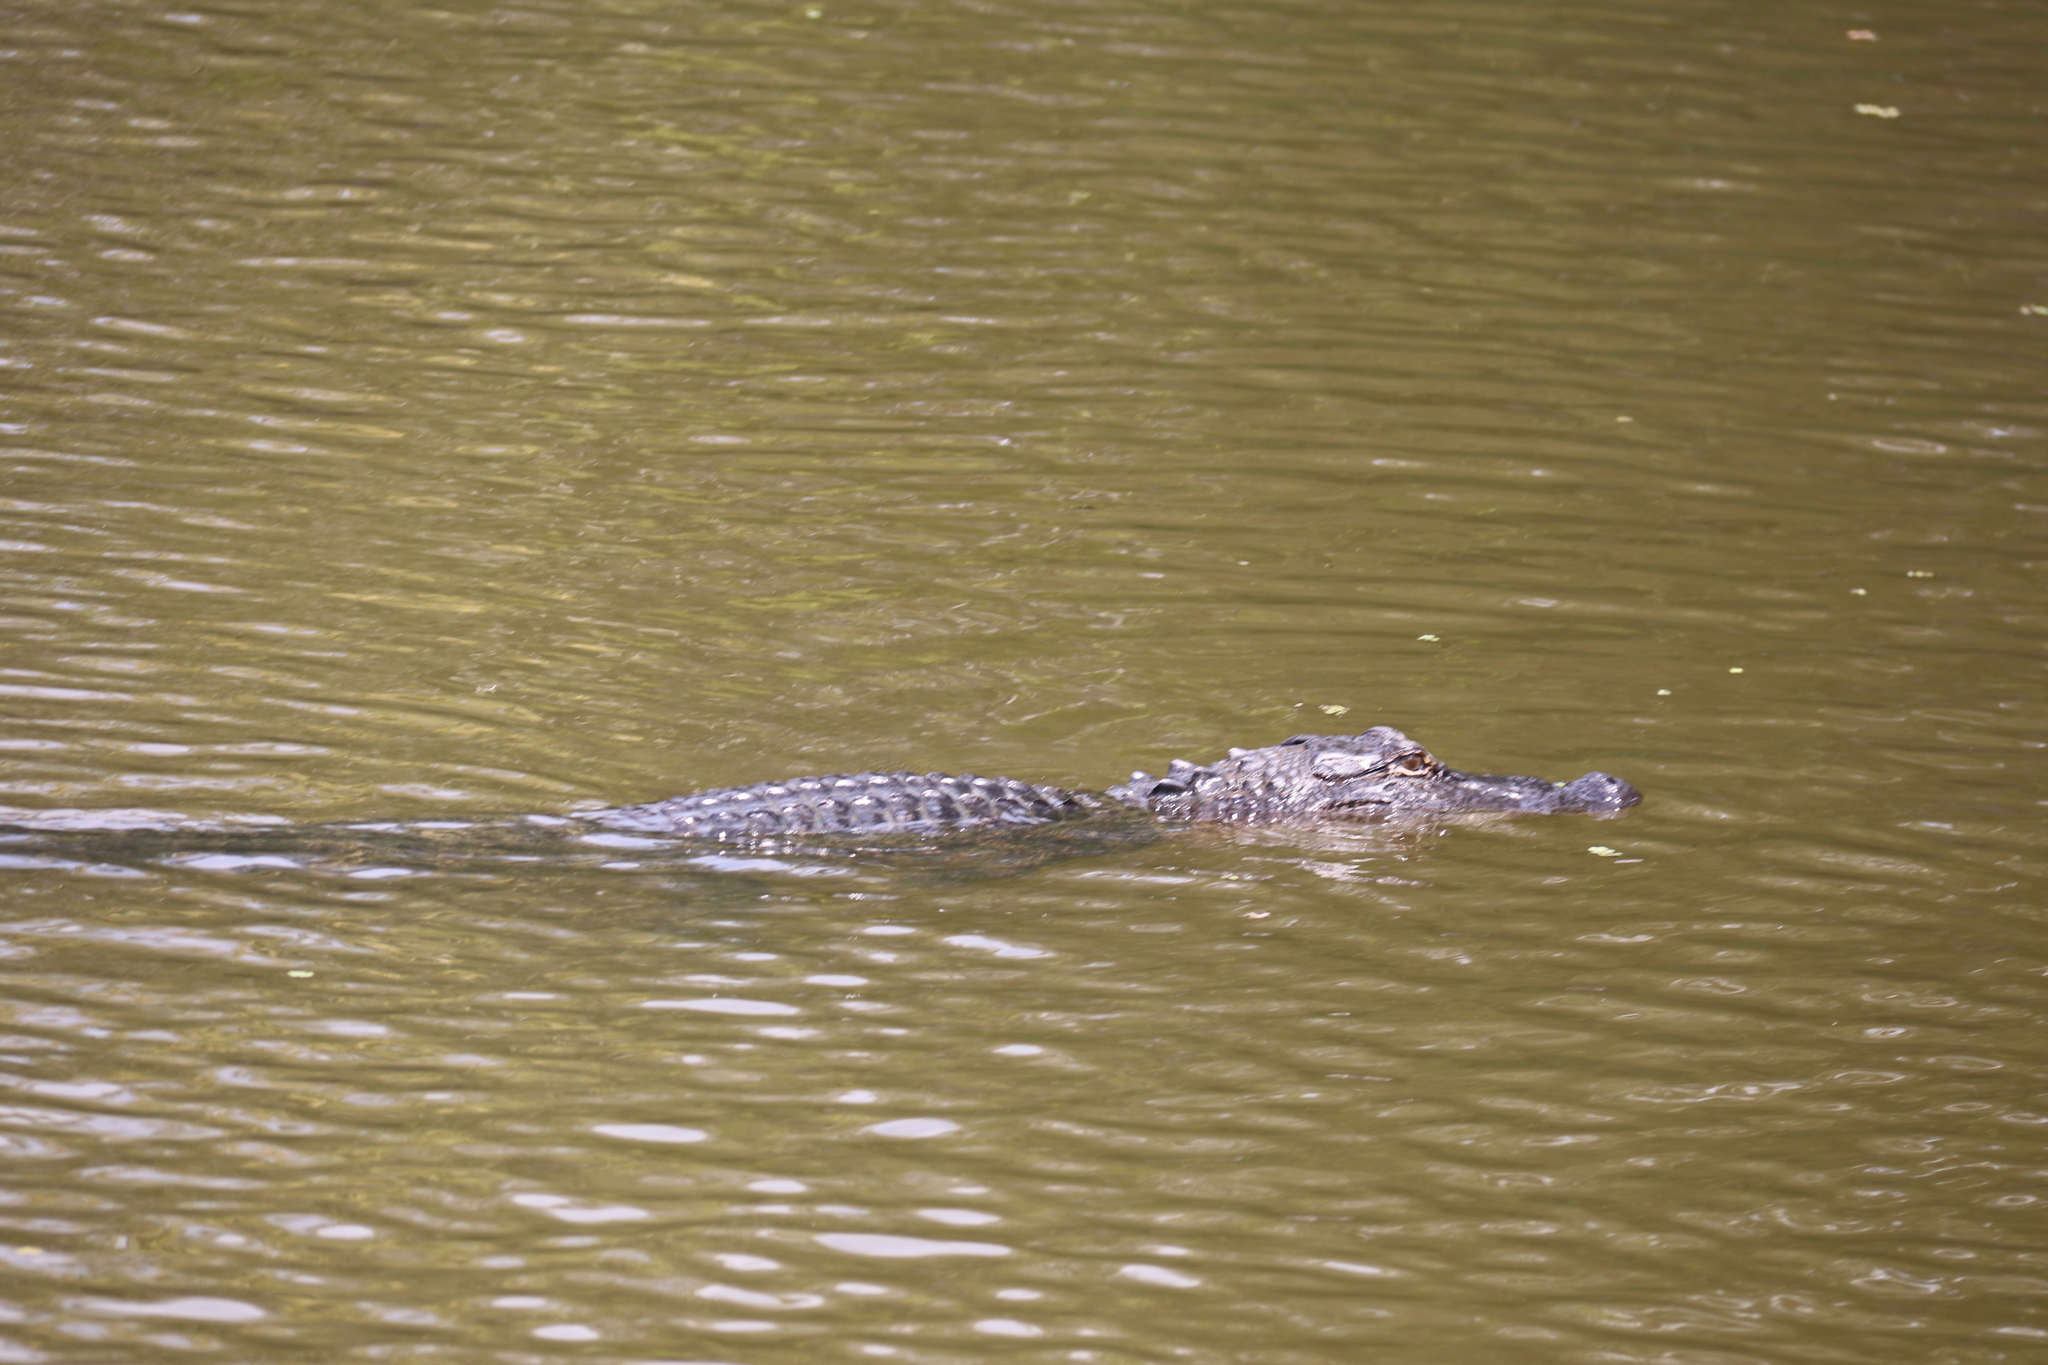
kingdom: Animalia
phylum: Chordata
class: Crocodylia
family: Alligatoridae
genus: Alligator
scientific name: Alligator mississippiensis
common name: American alligator
